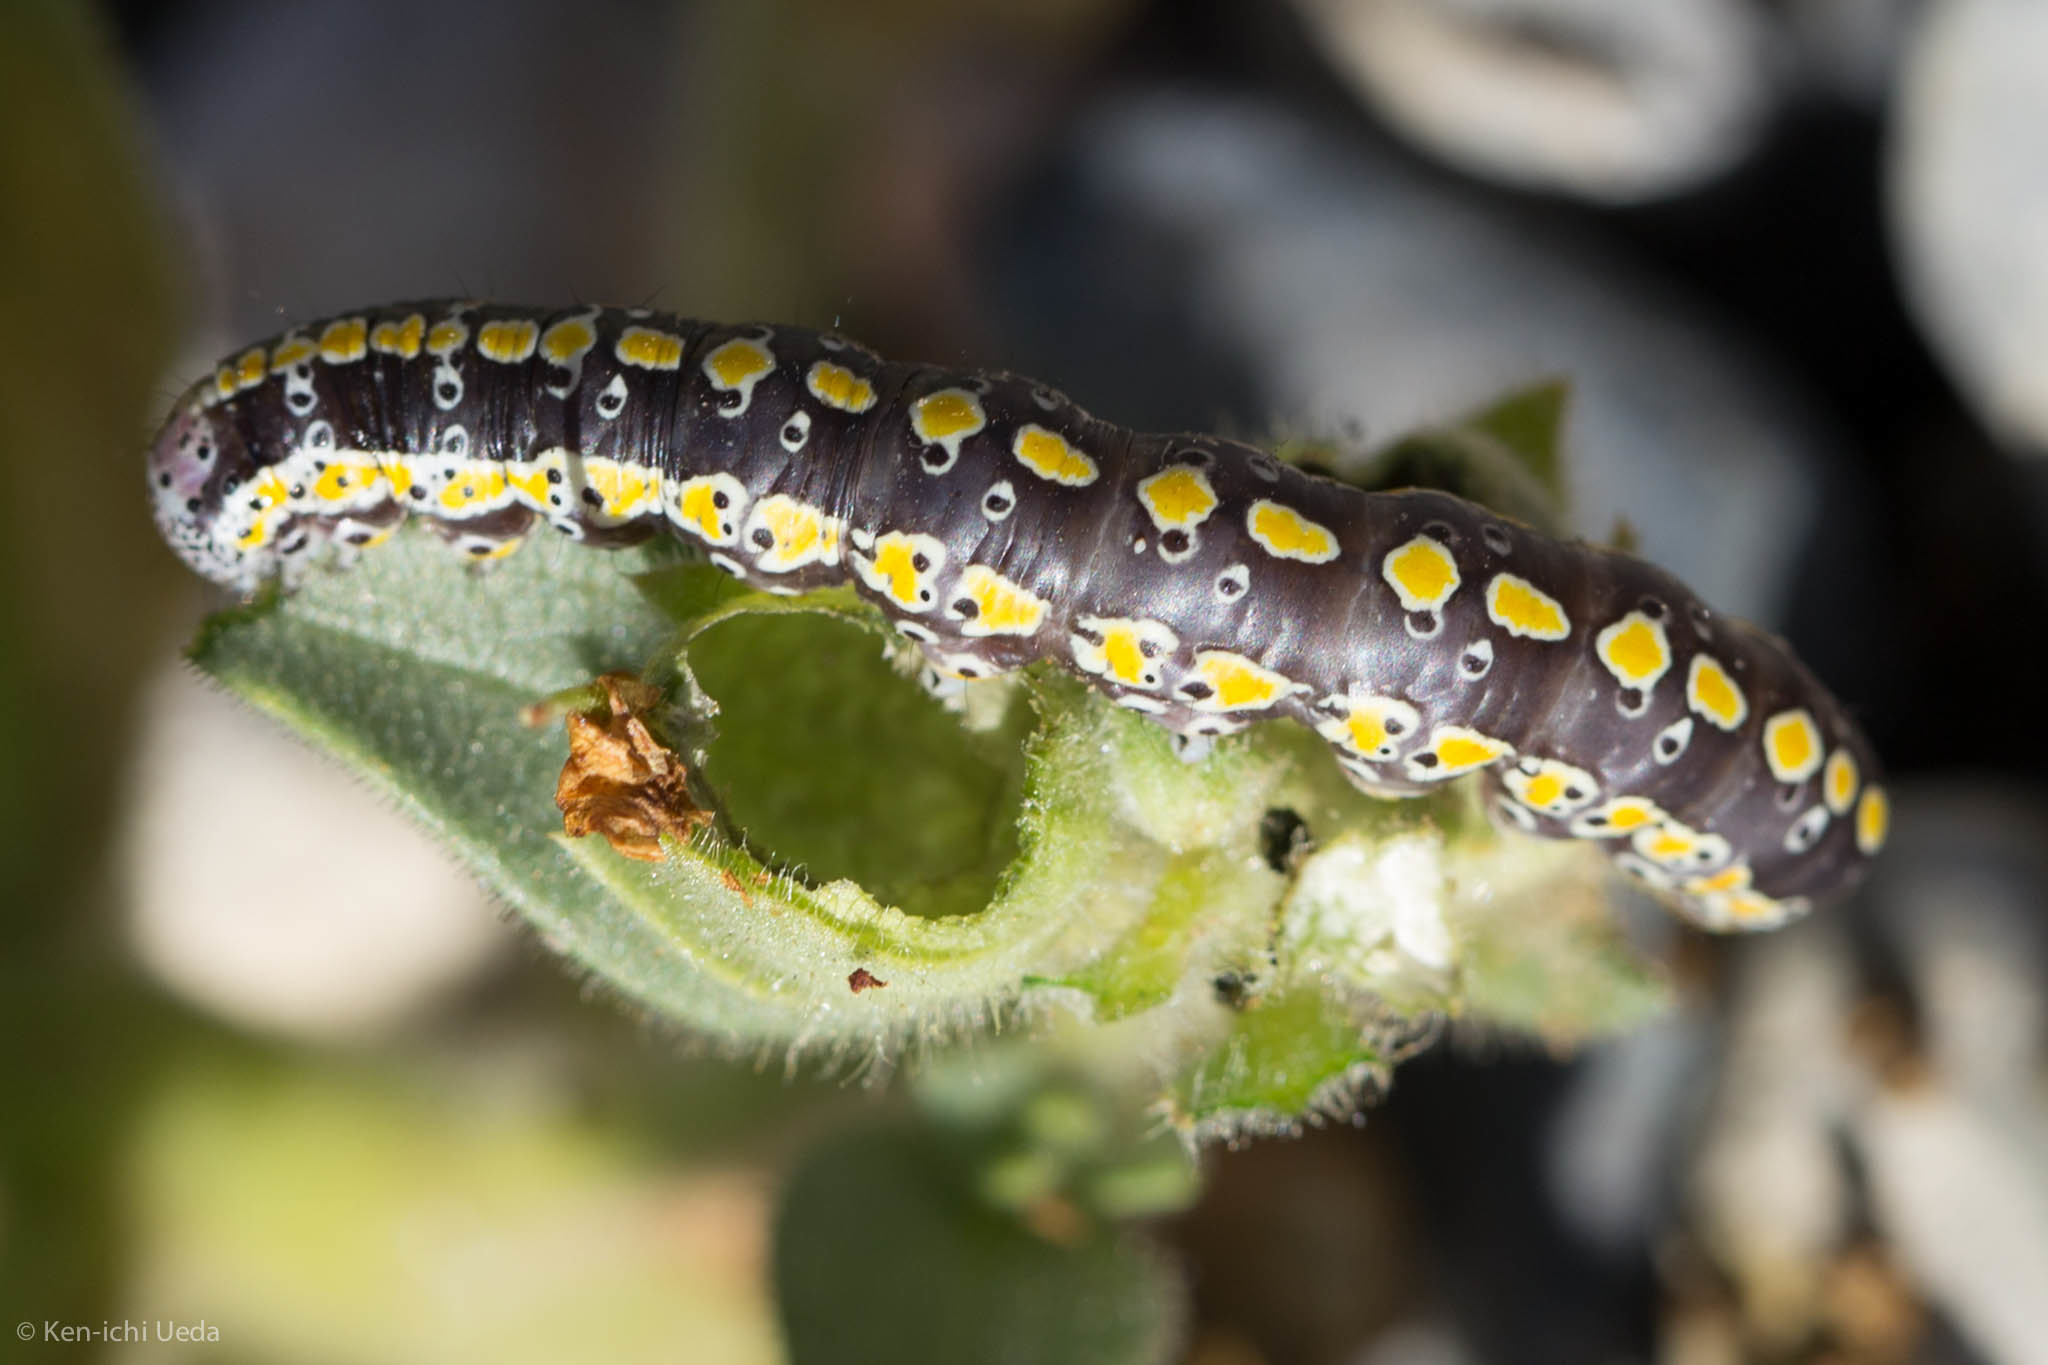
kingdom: Animalia
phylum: Arthropoda
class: Insecta
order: Lepidoptera
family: Noctuidae
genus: Sympistis
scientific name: Sympistis perscripta
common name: Scribbled sallow
